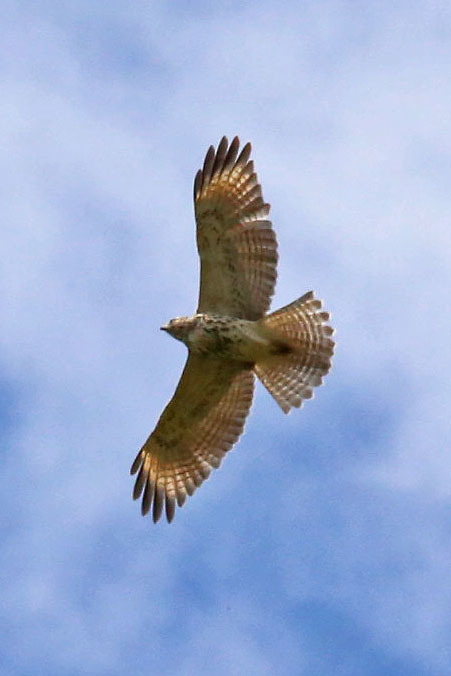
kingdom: Animalia
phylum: Chordata
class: Aves
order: Accipitriformes
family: Accipitridae
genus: Buteo
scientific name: Buteo lineatus
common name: Red-shouldered hawk
